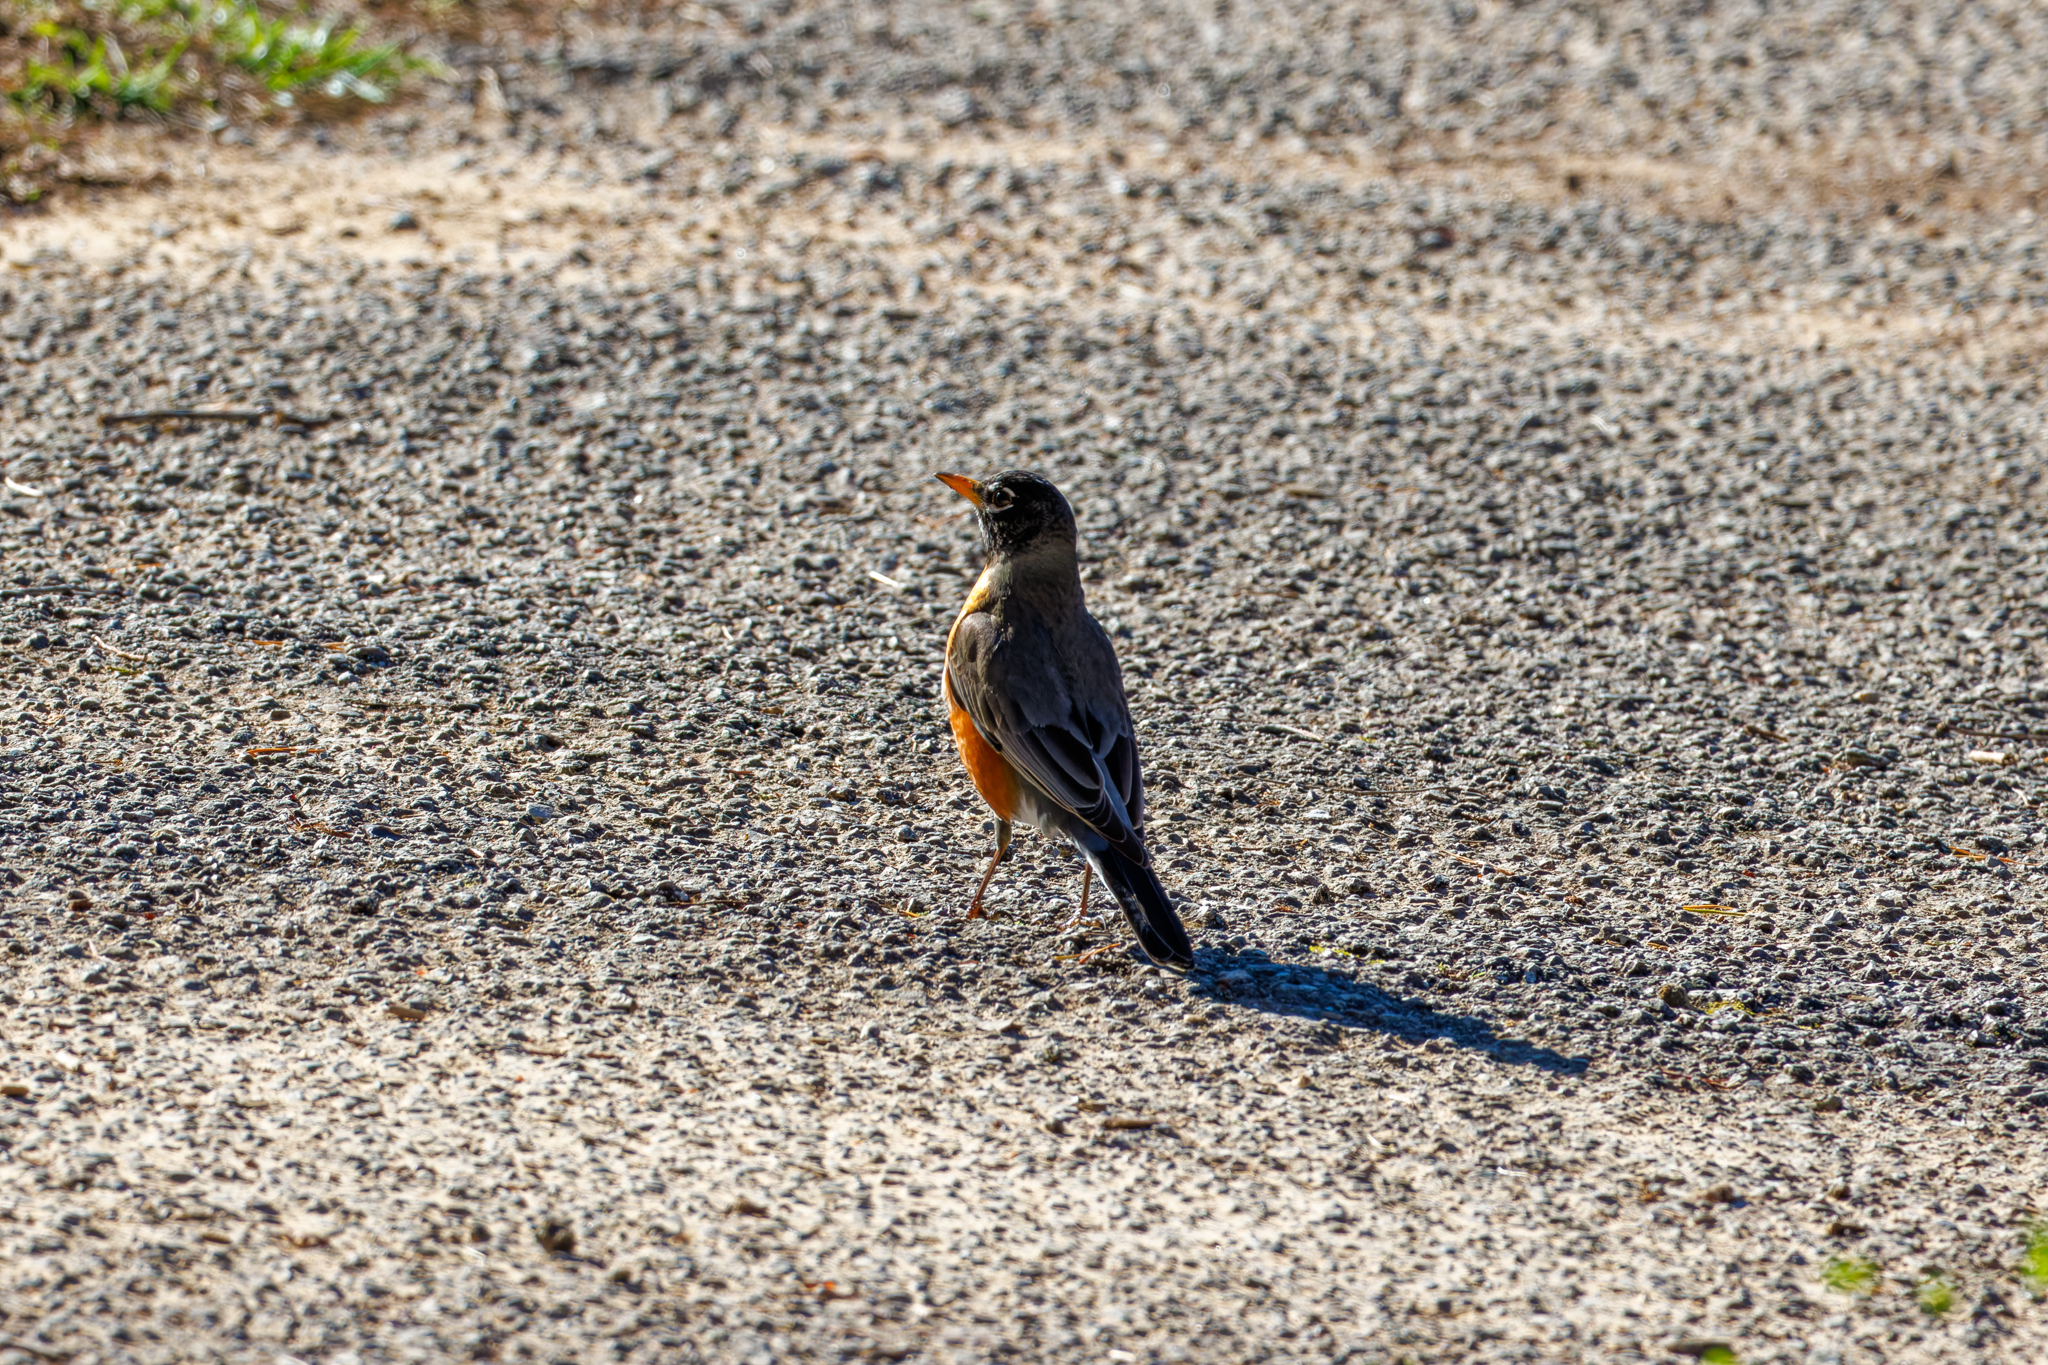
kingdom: Animalia
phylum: Chordata
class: Aves
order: Passeriformes
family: Turdidae
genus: Turdus
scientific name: Turdus migratorius
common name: American robin
